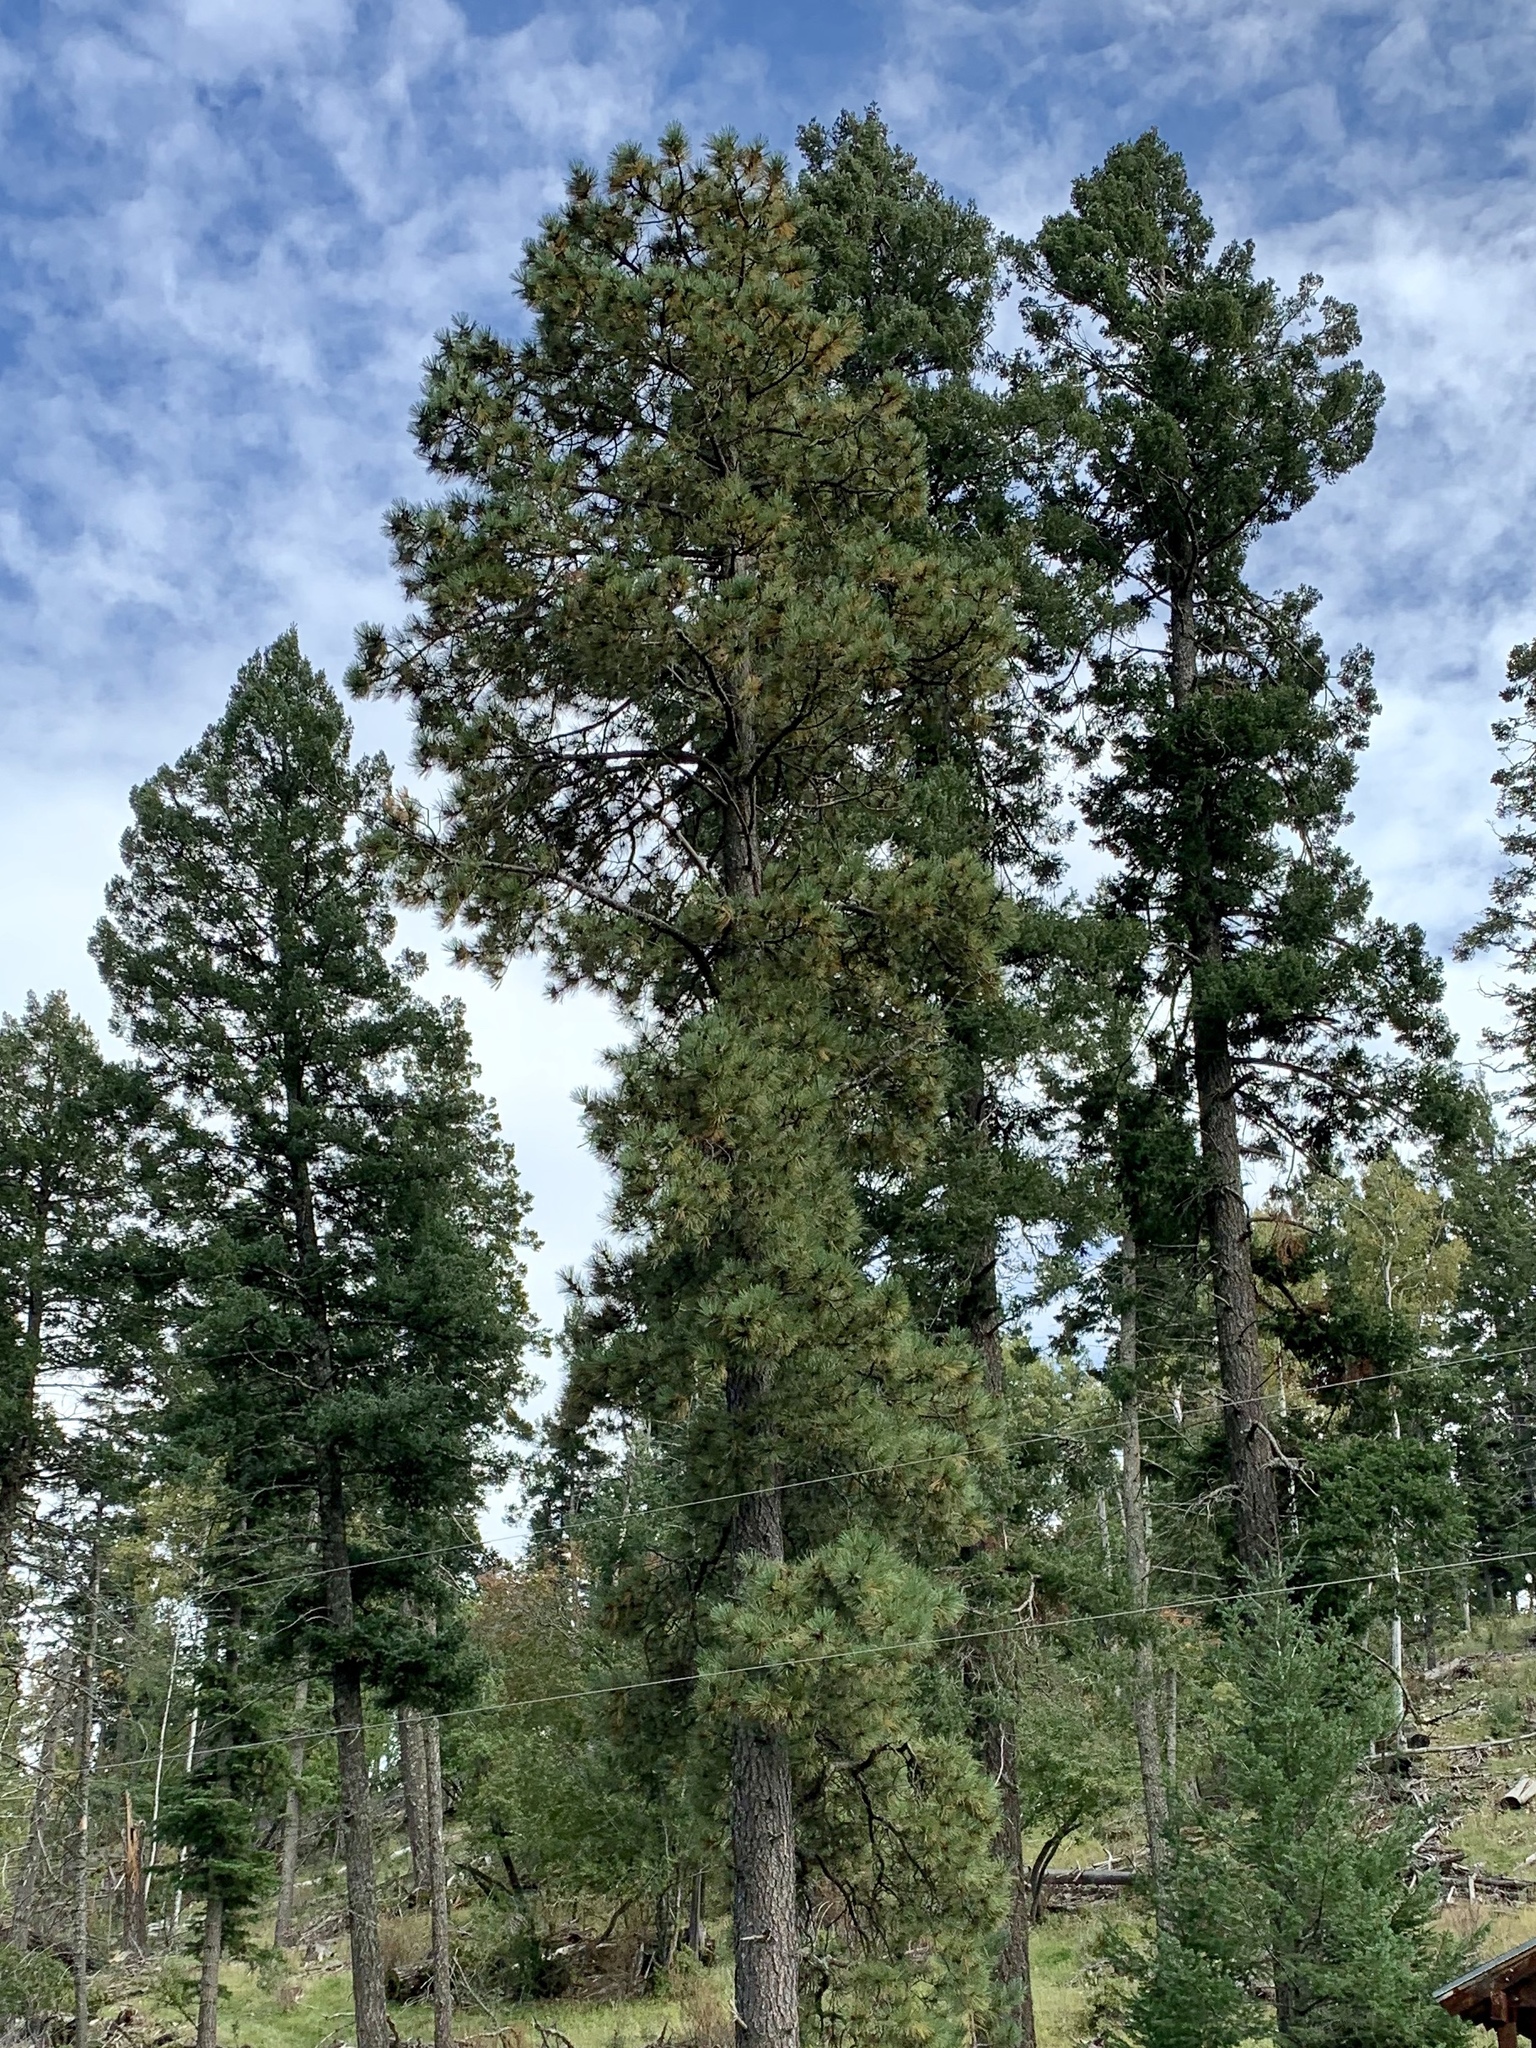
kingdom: Plantae
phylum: Tracheophyta
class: Pinopsida
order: Pinales
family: Pinaceae
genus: Pinus
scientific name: Pinus ponderosa
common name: Western yellow-pine
